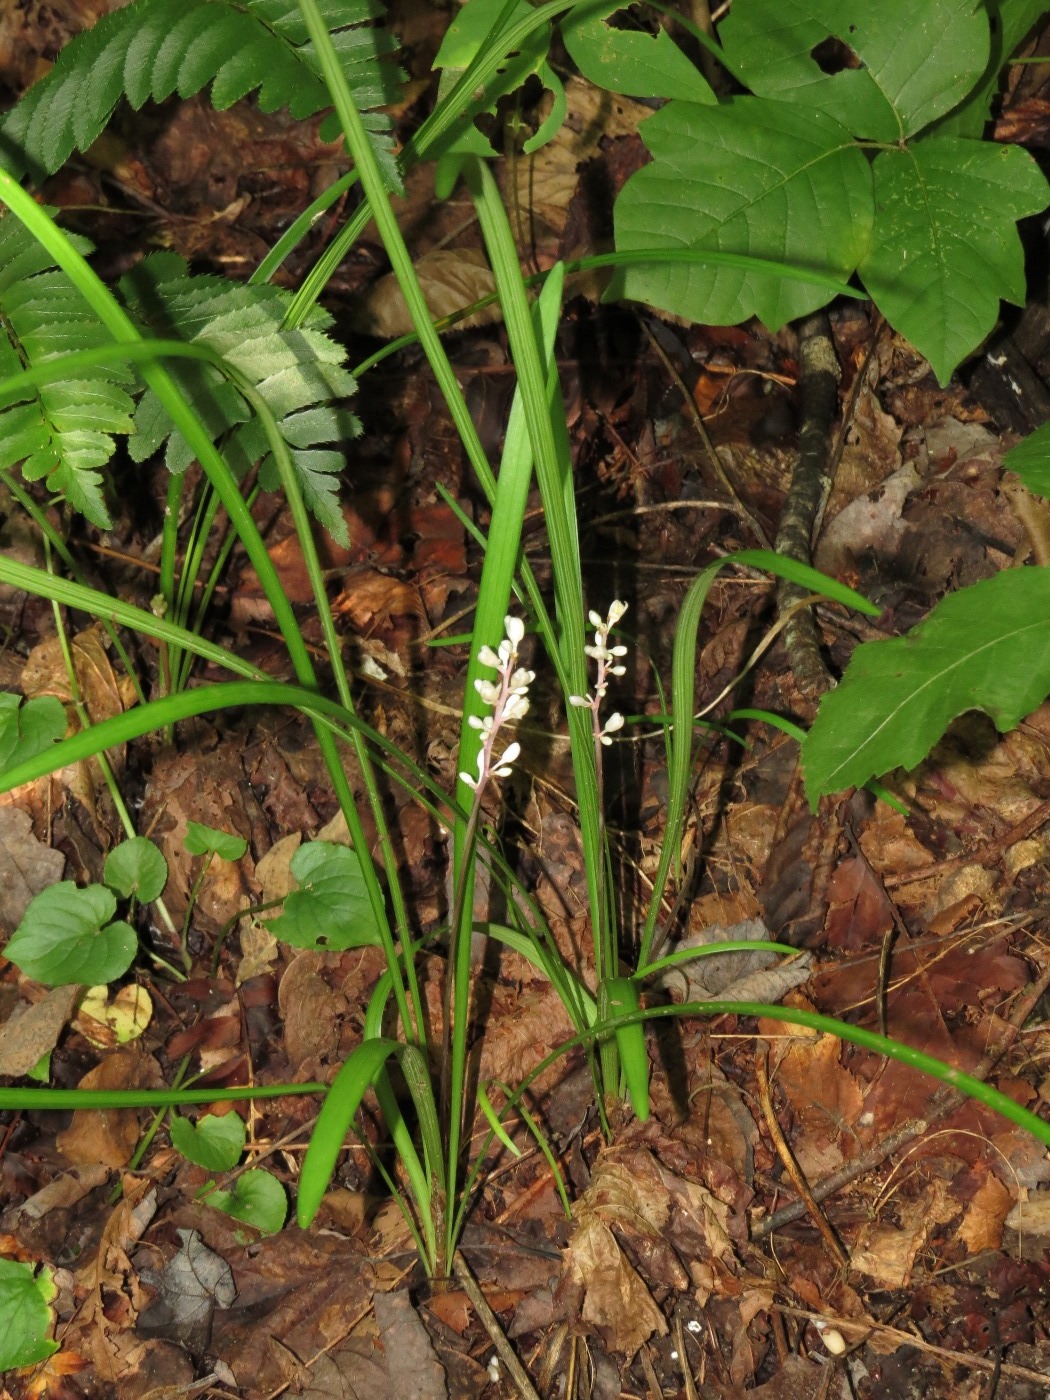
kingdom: Plantae
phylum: Tracheophyta
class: Liliopsida
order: Asparagales
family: Asparagaceae
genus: Liriope
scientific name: Liriope spicata
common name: Creeping liriope
